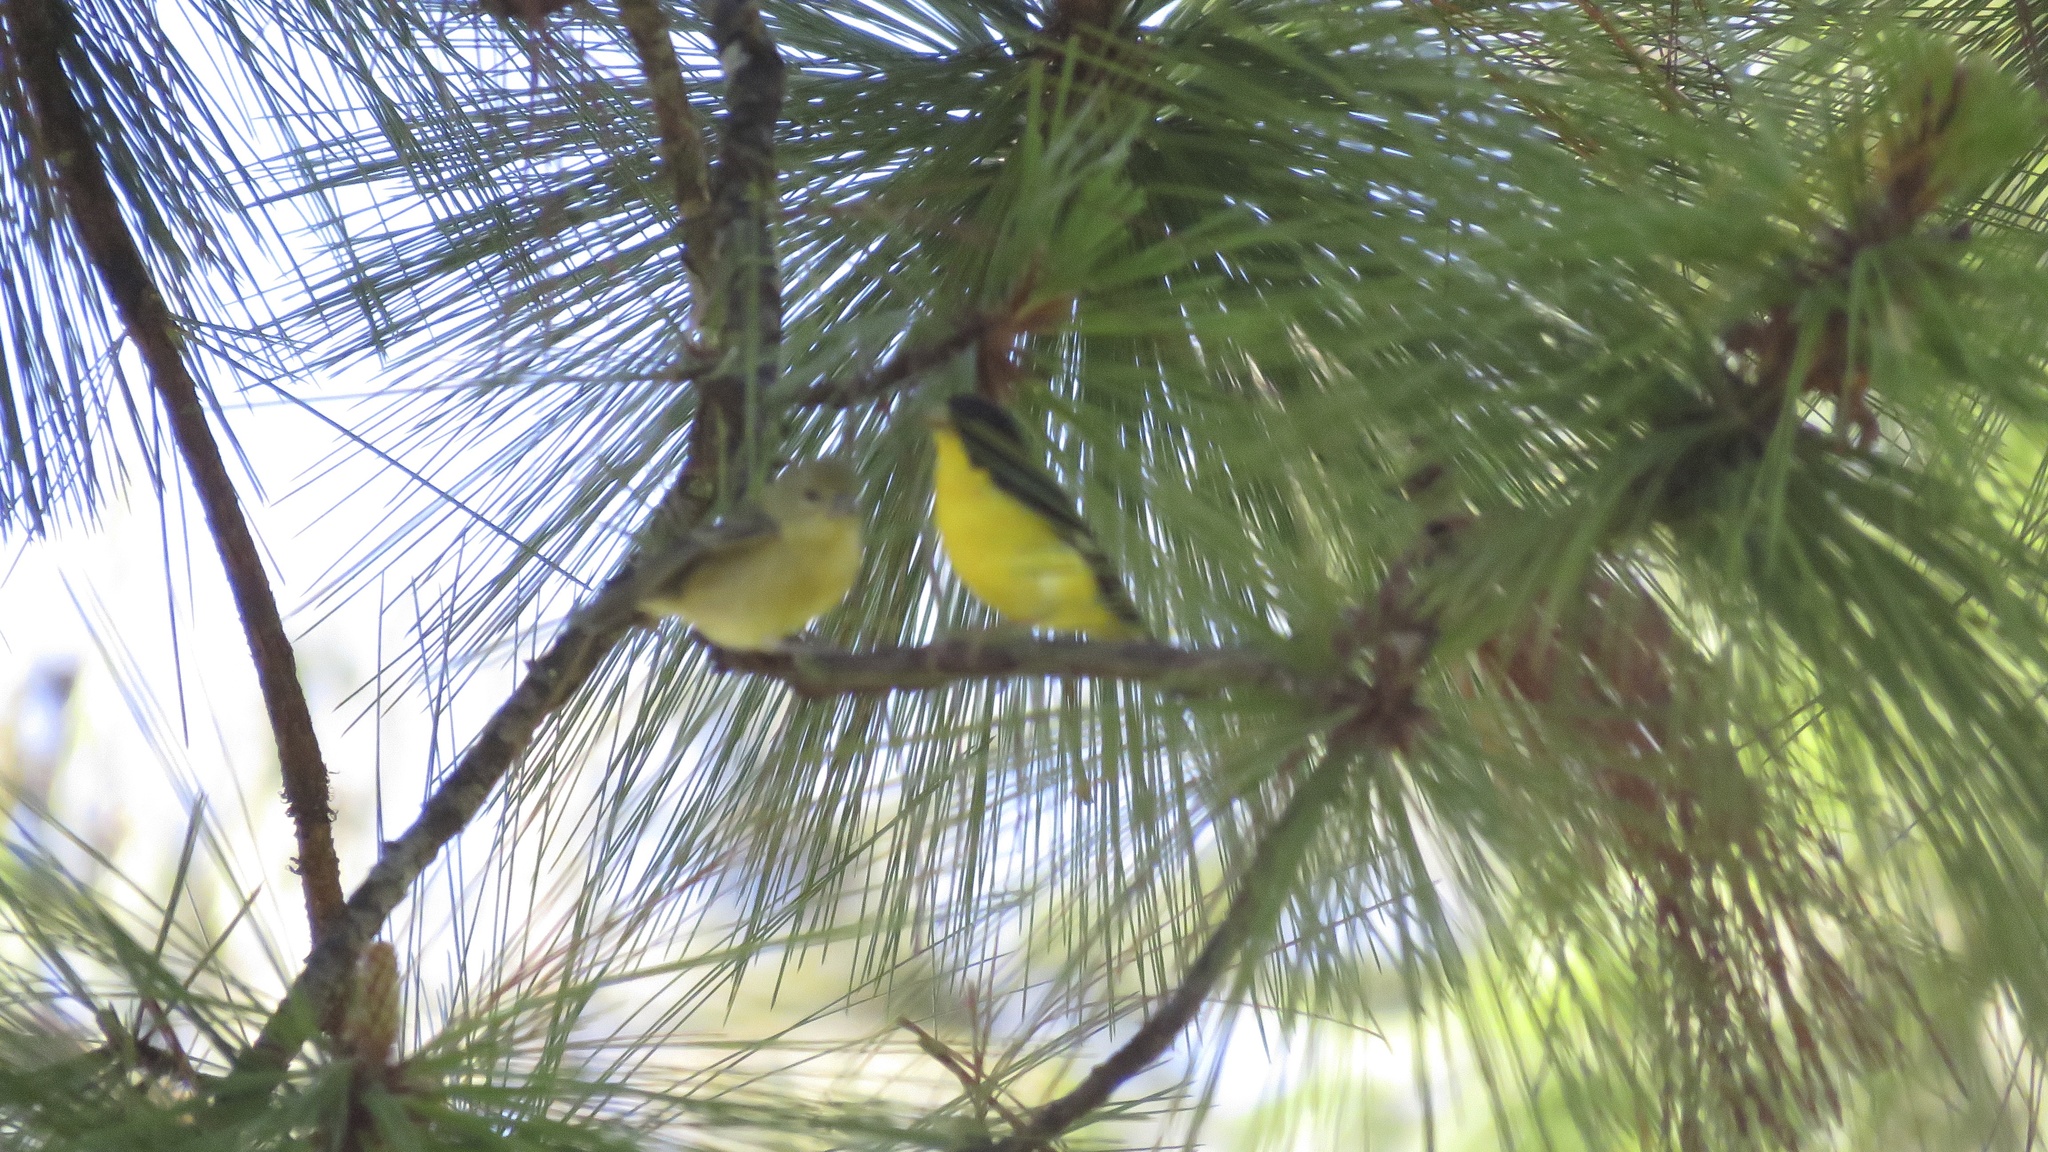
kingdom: Animalia
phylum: Chordata
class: Aves
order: Passeriformes
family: Fringillidae
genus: Spinus
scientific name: Spinus psaltria
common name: Lesser goldfinch
